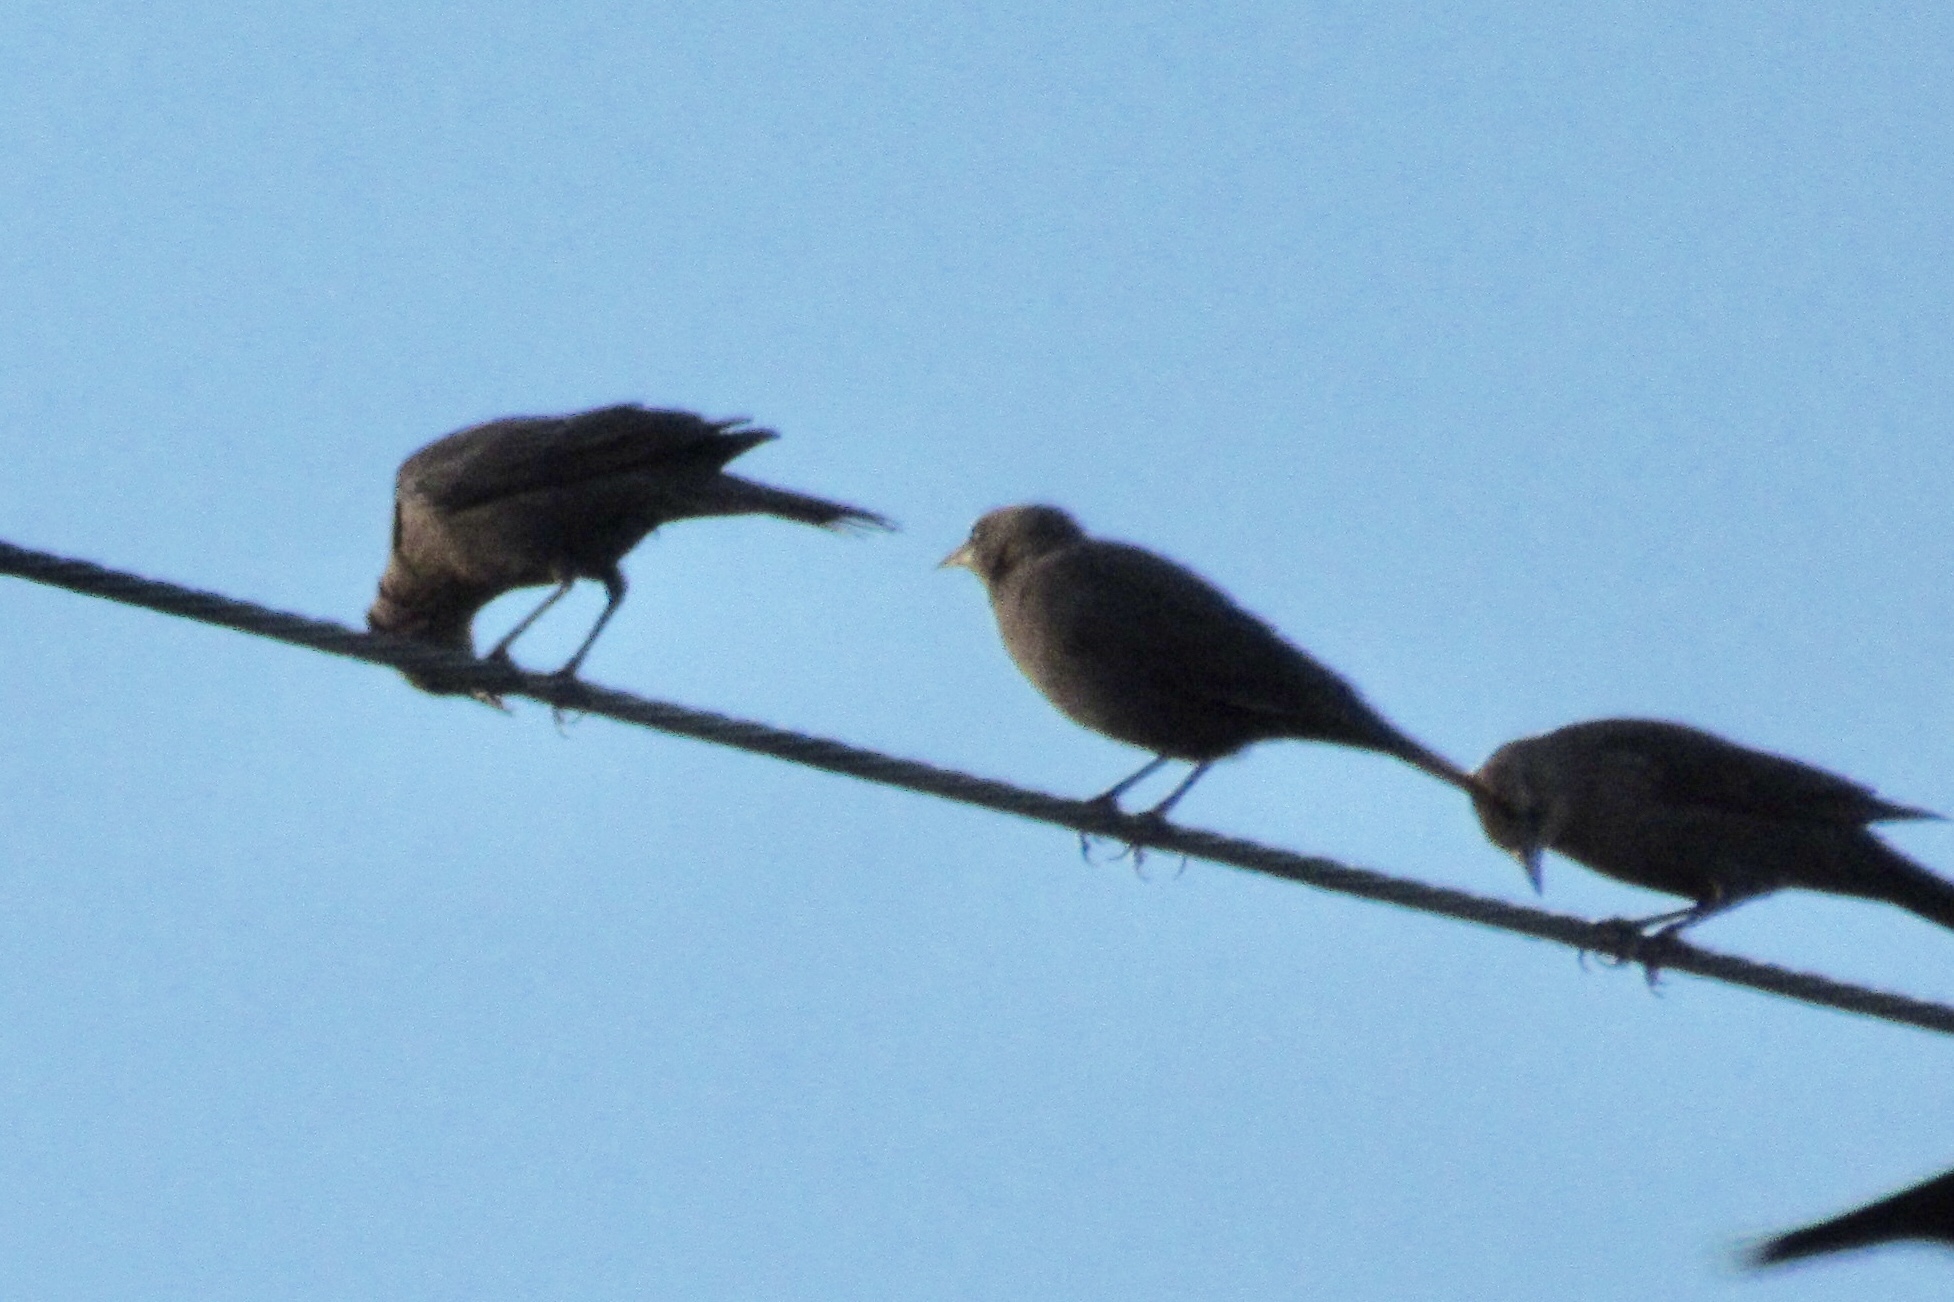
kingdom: Animalia
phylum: Chordata
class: Aves
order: Passeriformes
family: Icteridae
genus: Euphagus
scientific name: Euphagus cyanocephalus
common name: Brewer's blackbird
